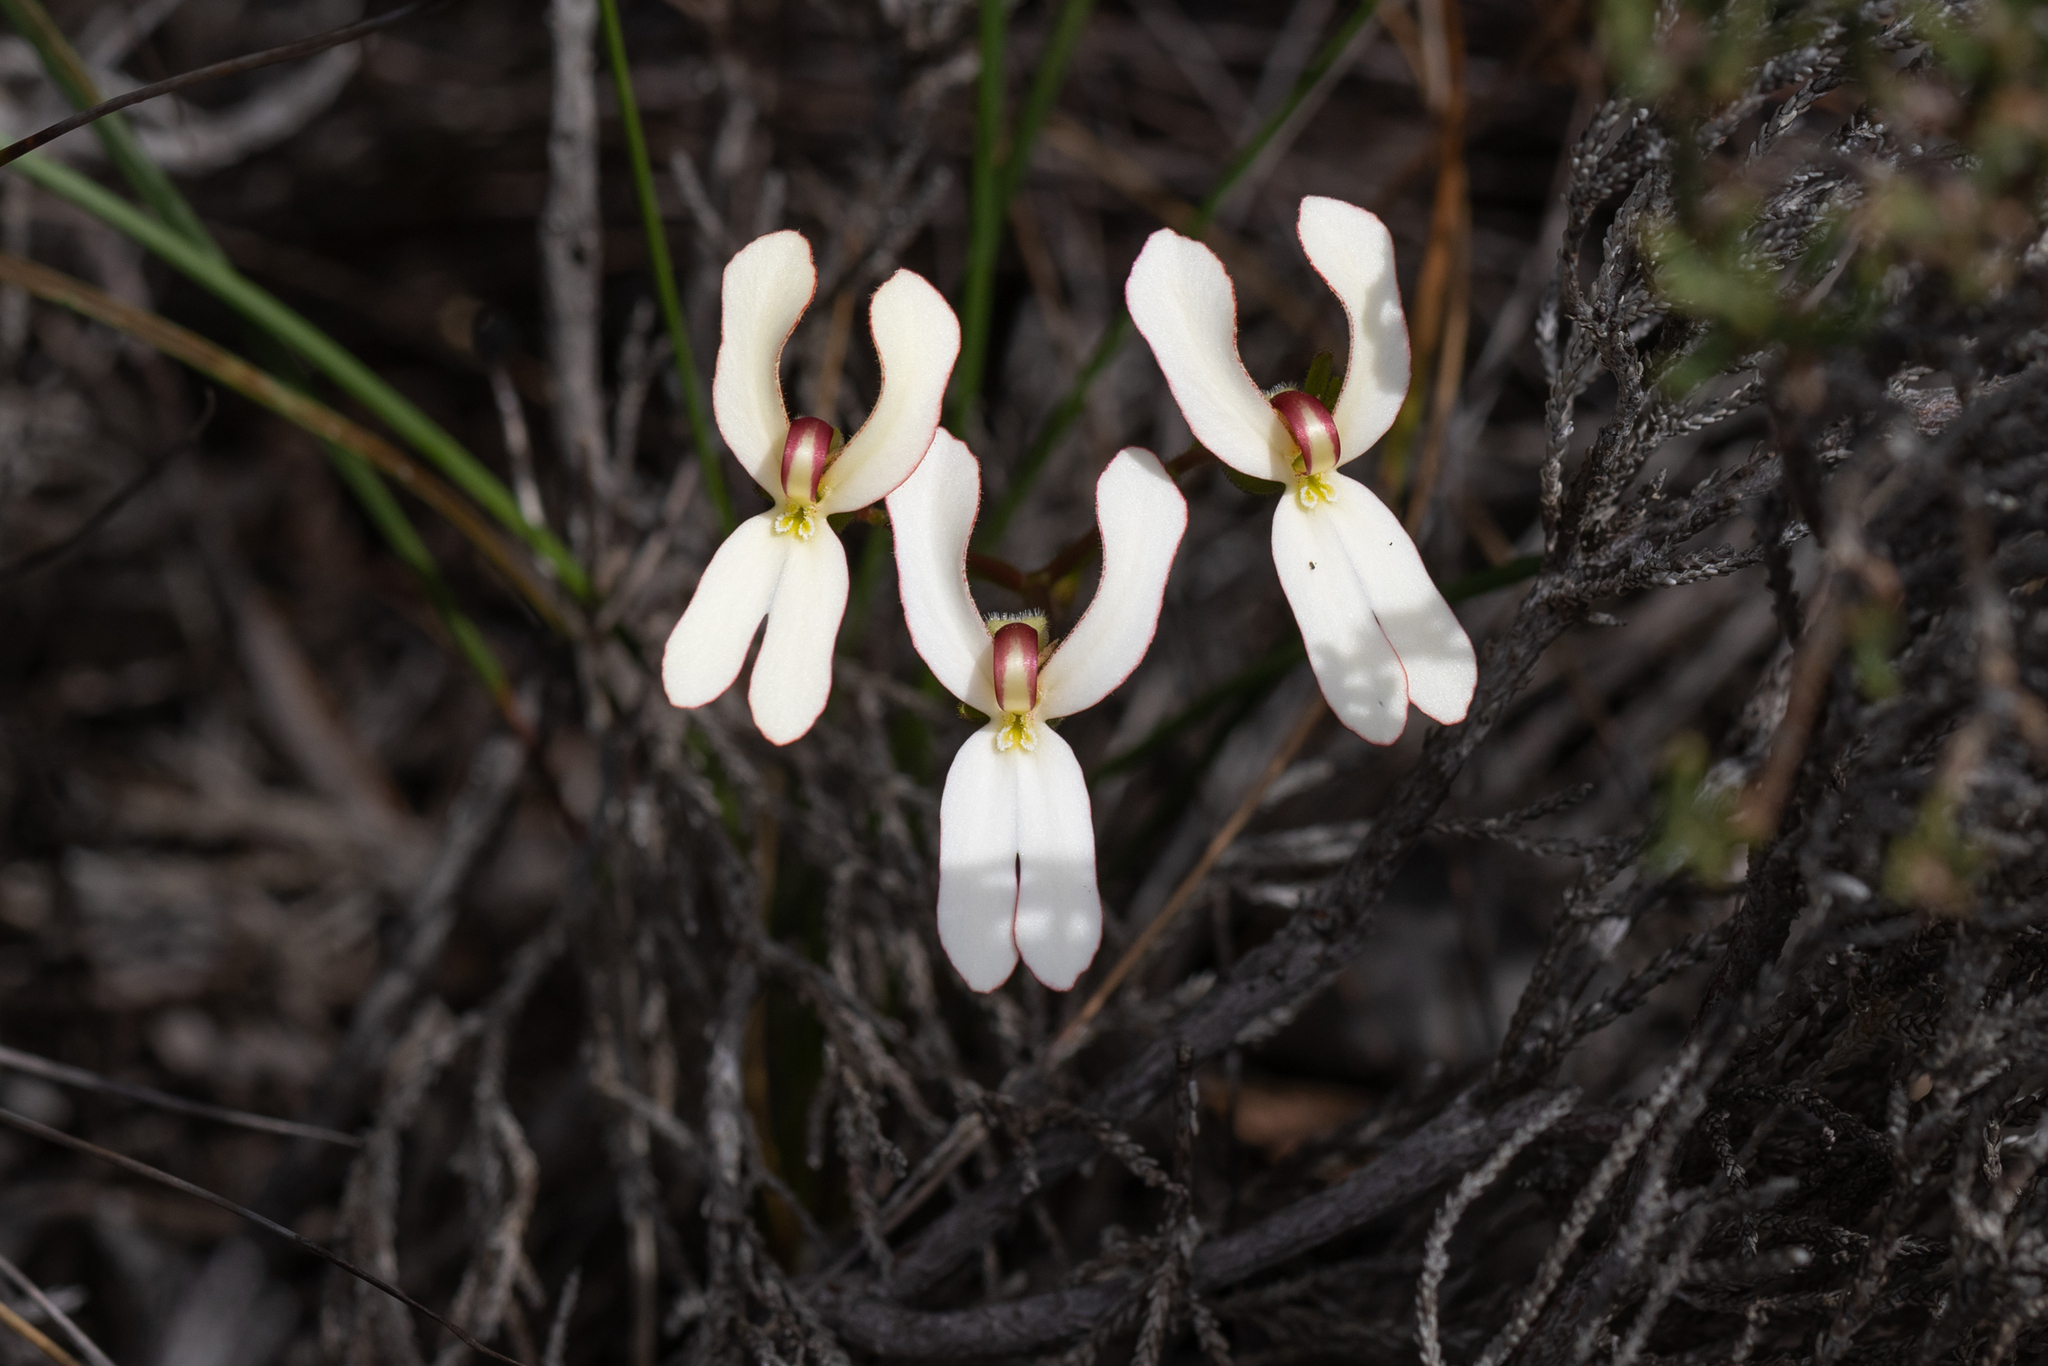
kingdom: Plantae
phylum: Tracheophyta
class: Magnoliopsida
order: Asterales
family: Stylidiaceae
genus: Stylidium
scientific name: Stylidium schoenoides
